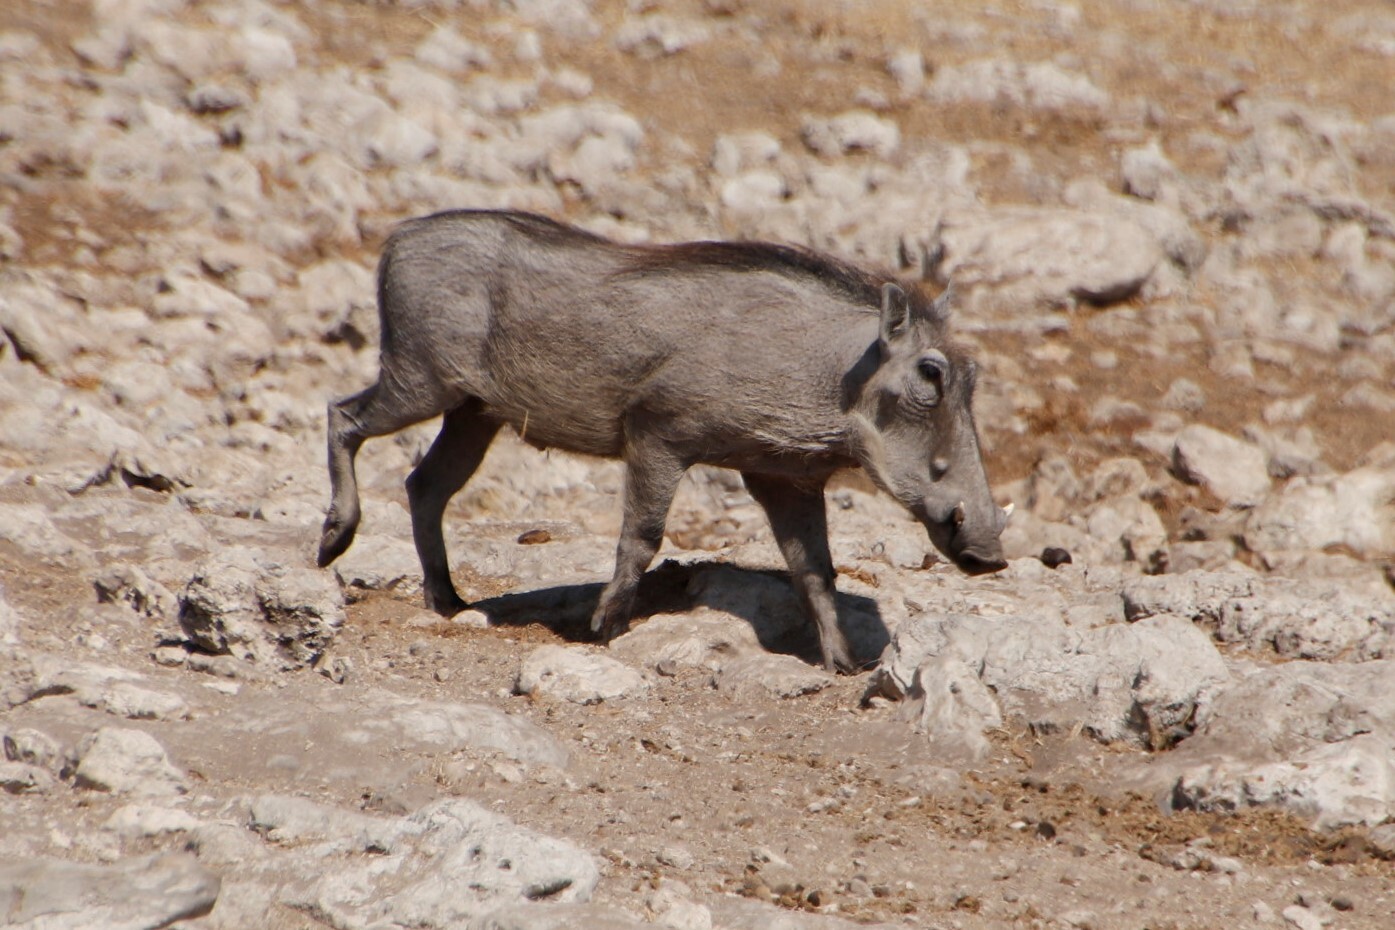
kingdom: Animalia
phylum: Chordata
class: Mammalia
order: Artiodactyla
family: Suidae
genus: Phacochoerus
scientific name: Phacochoerus africanus
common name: Common warthog
